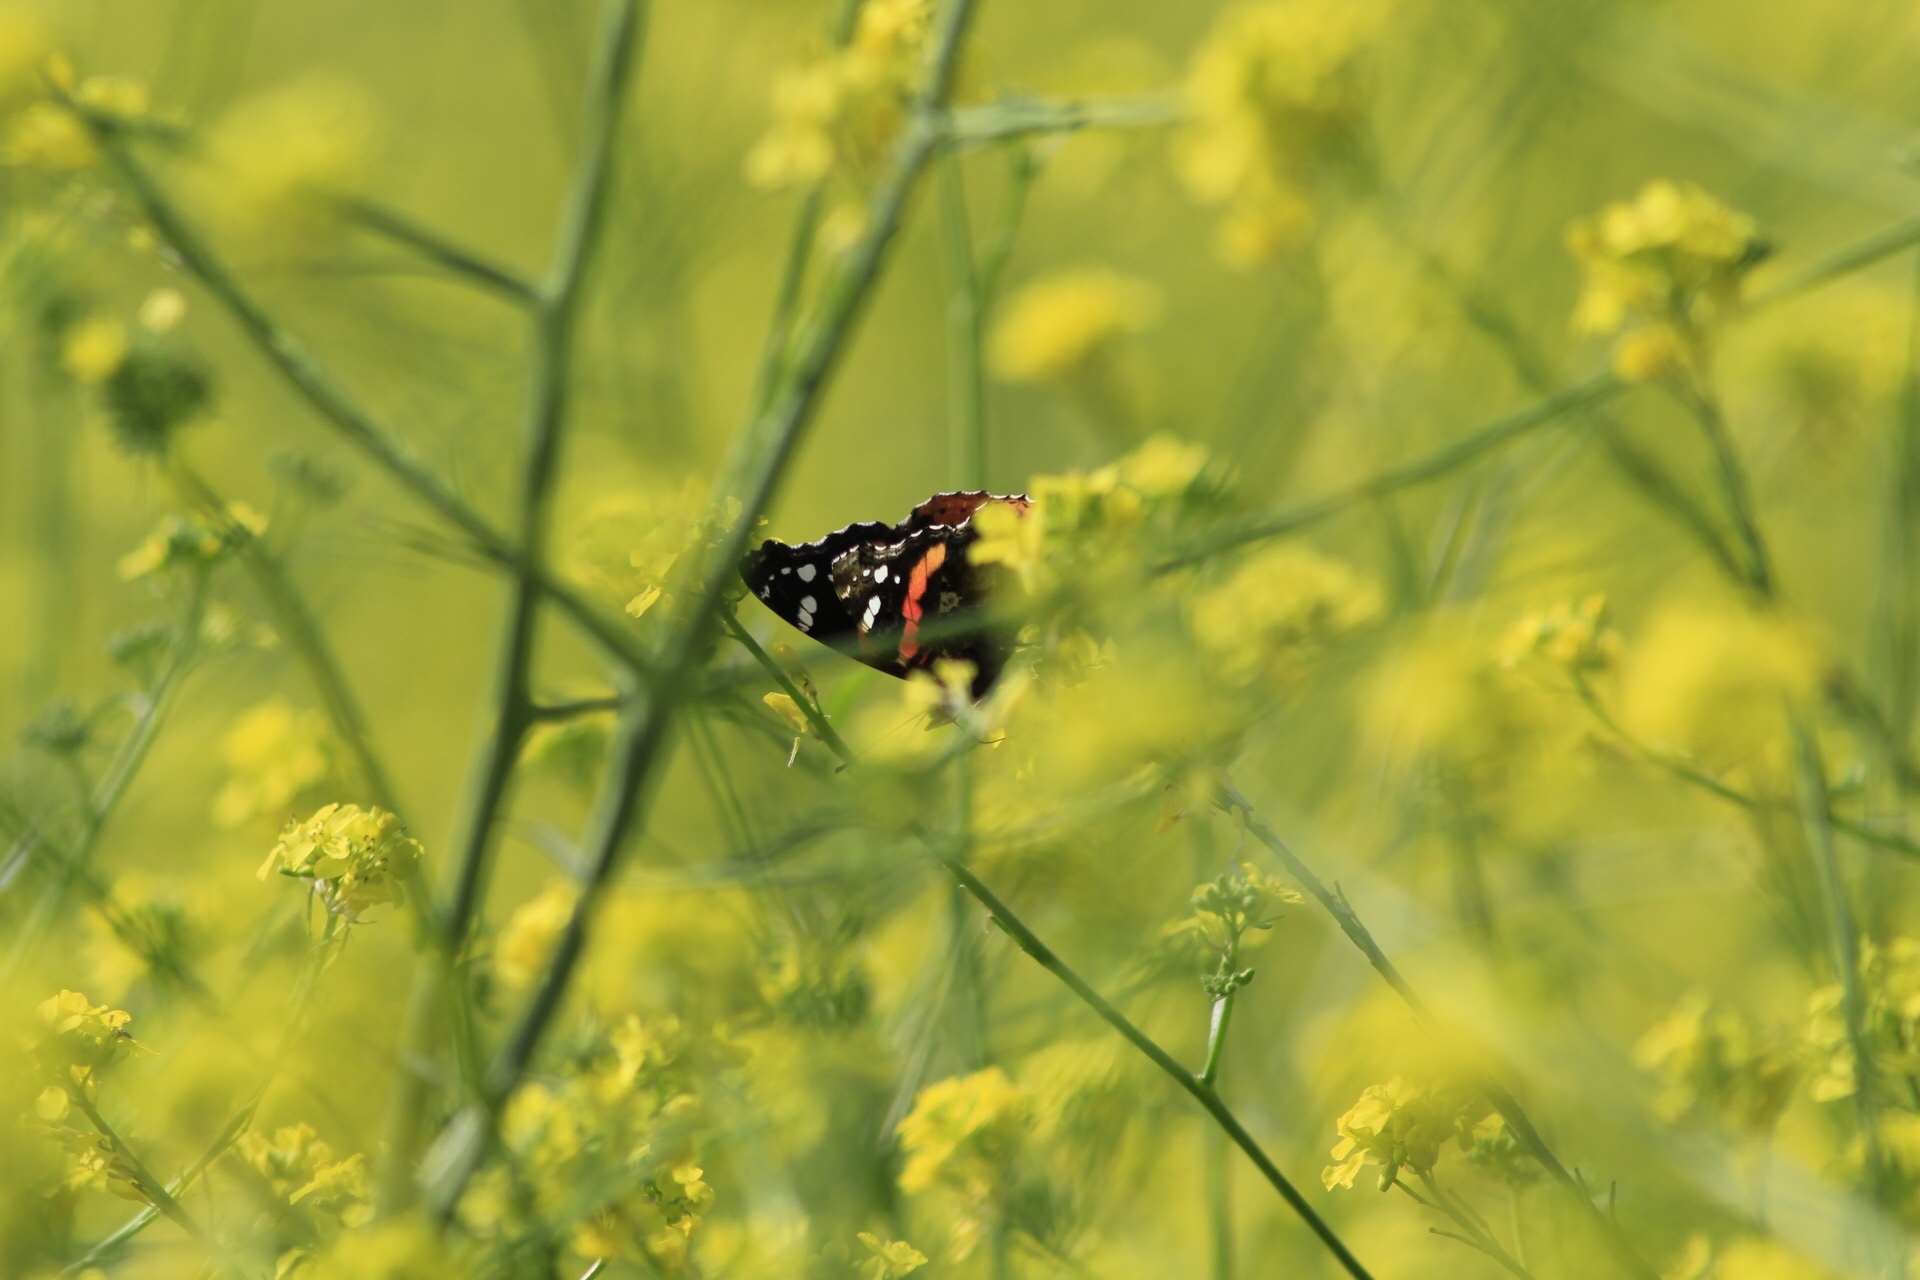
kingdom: Animalia
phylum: Arthropoda
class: Insecta
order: Lepidoptera
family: Nymphalidae
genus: Vanessa
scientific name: Vanessa atalanta
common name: Red admiral
